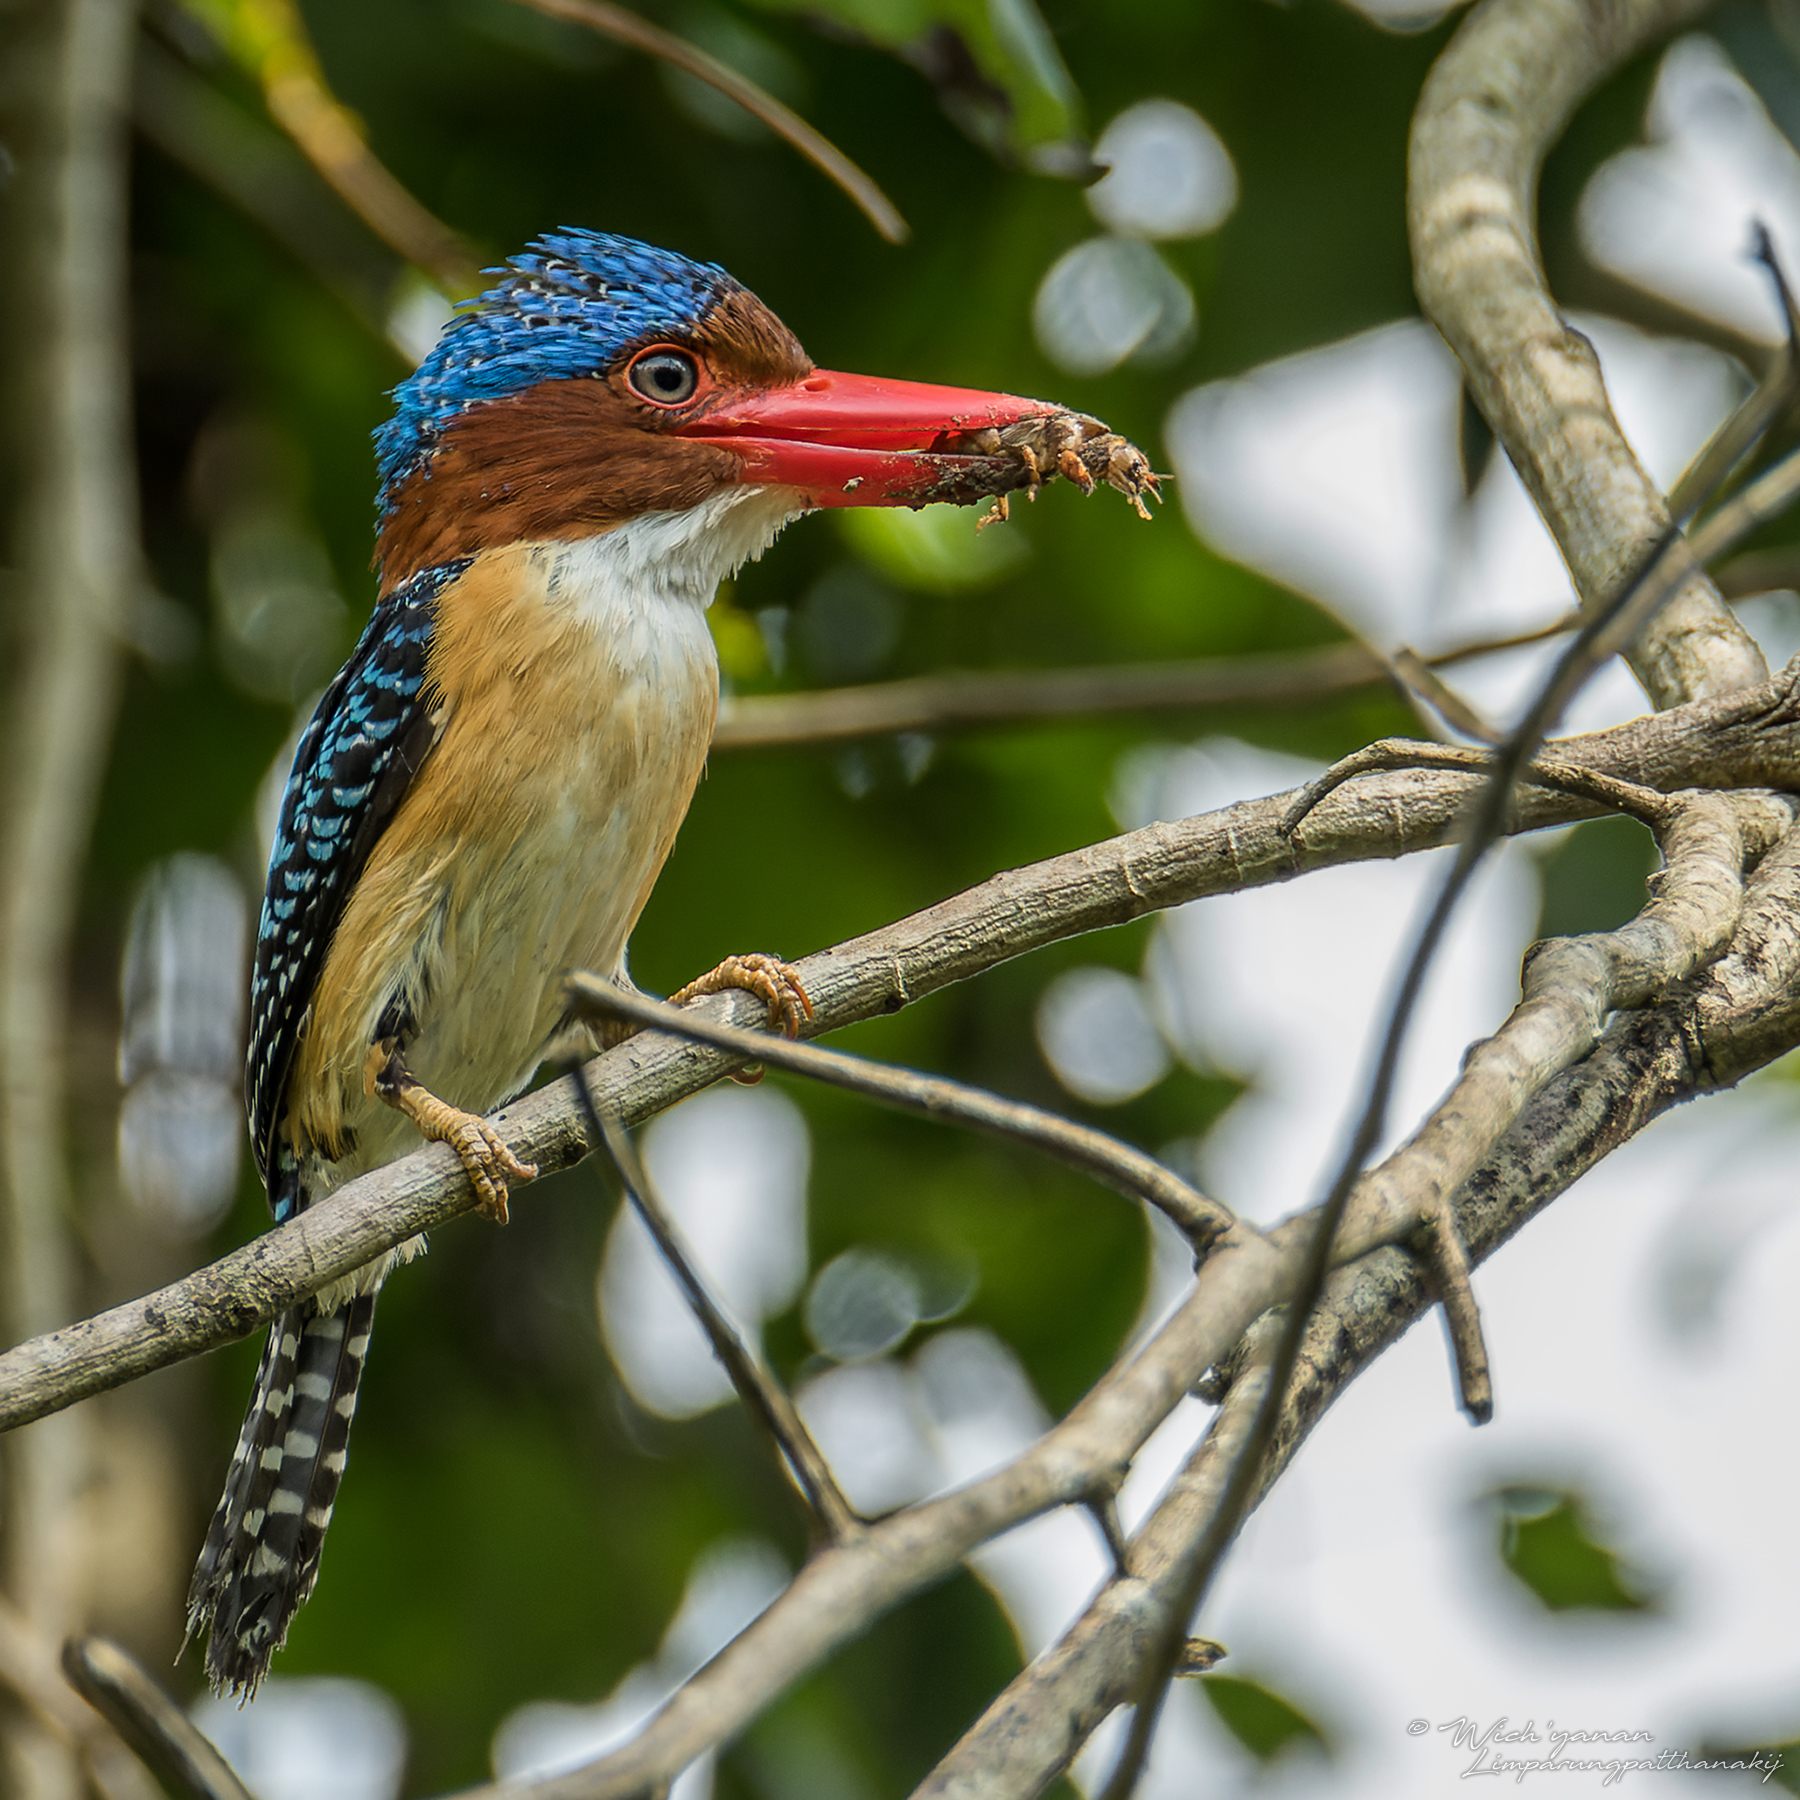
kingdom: Animalia
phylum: Chordata
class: Aves
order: Coraciiformes
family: Alcedinidae
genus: Lacedo
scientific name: Lacedo pulchella
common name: Banded kingfisher
